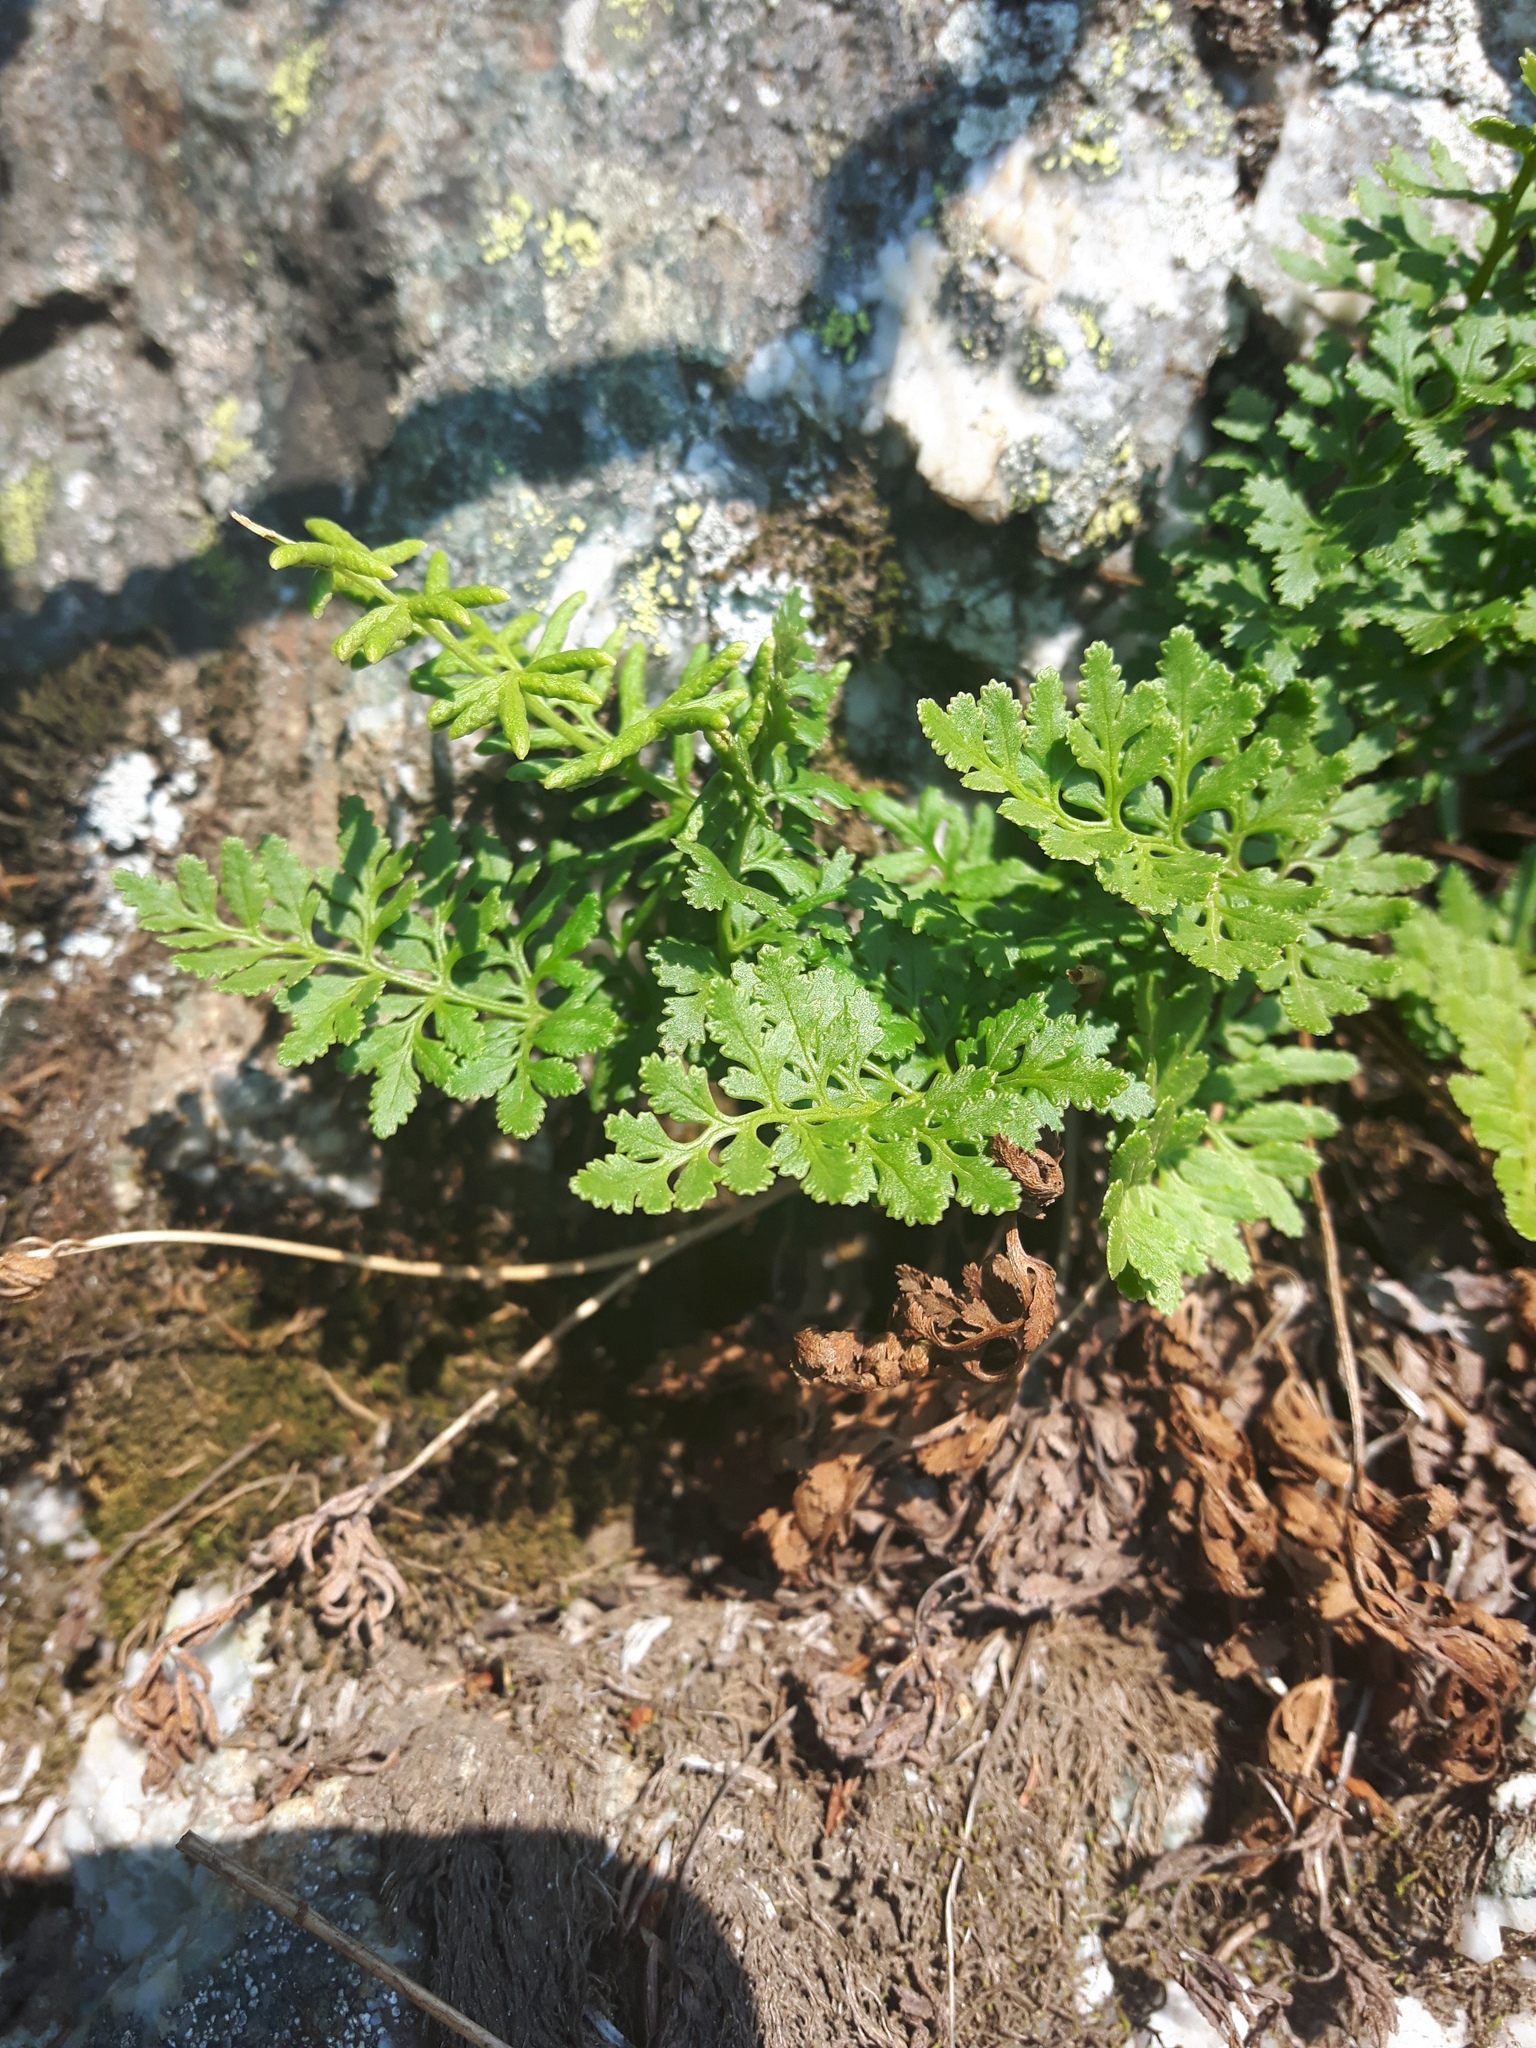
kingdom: Plantae
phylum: Tracheophyta
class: Polypodiopsida
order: Polypodiales
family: Pteridaceae
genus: Cryptogramma
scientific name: Cryptogramma acrostichoides
